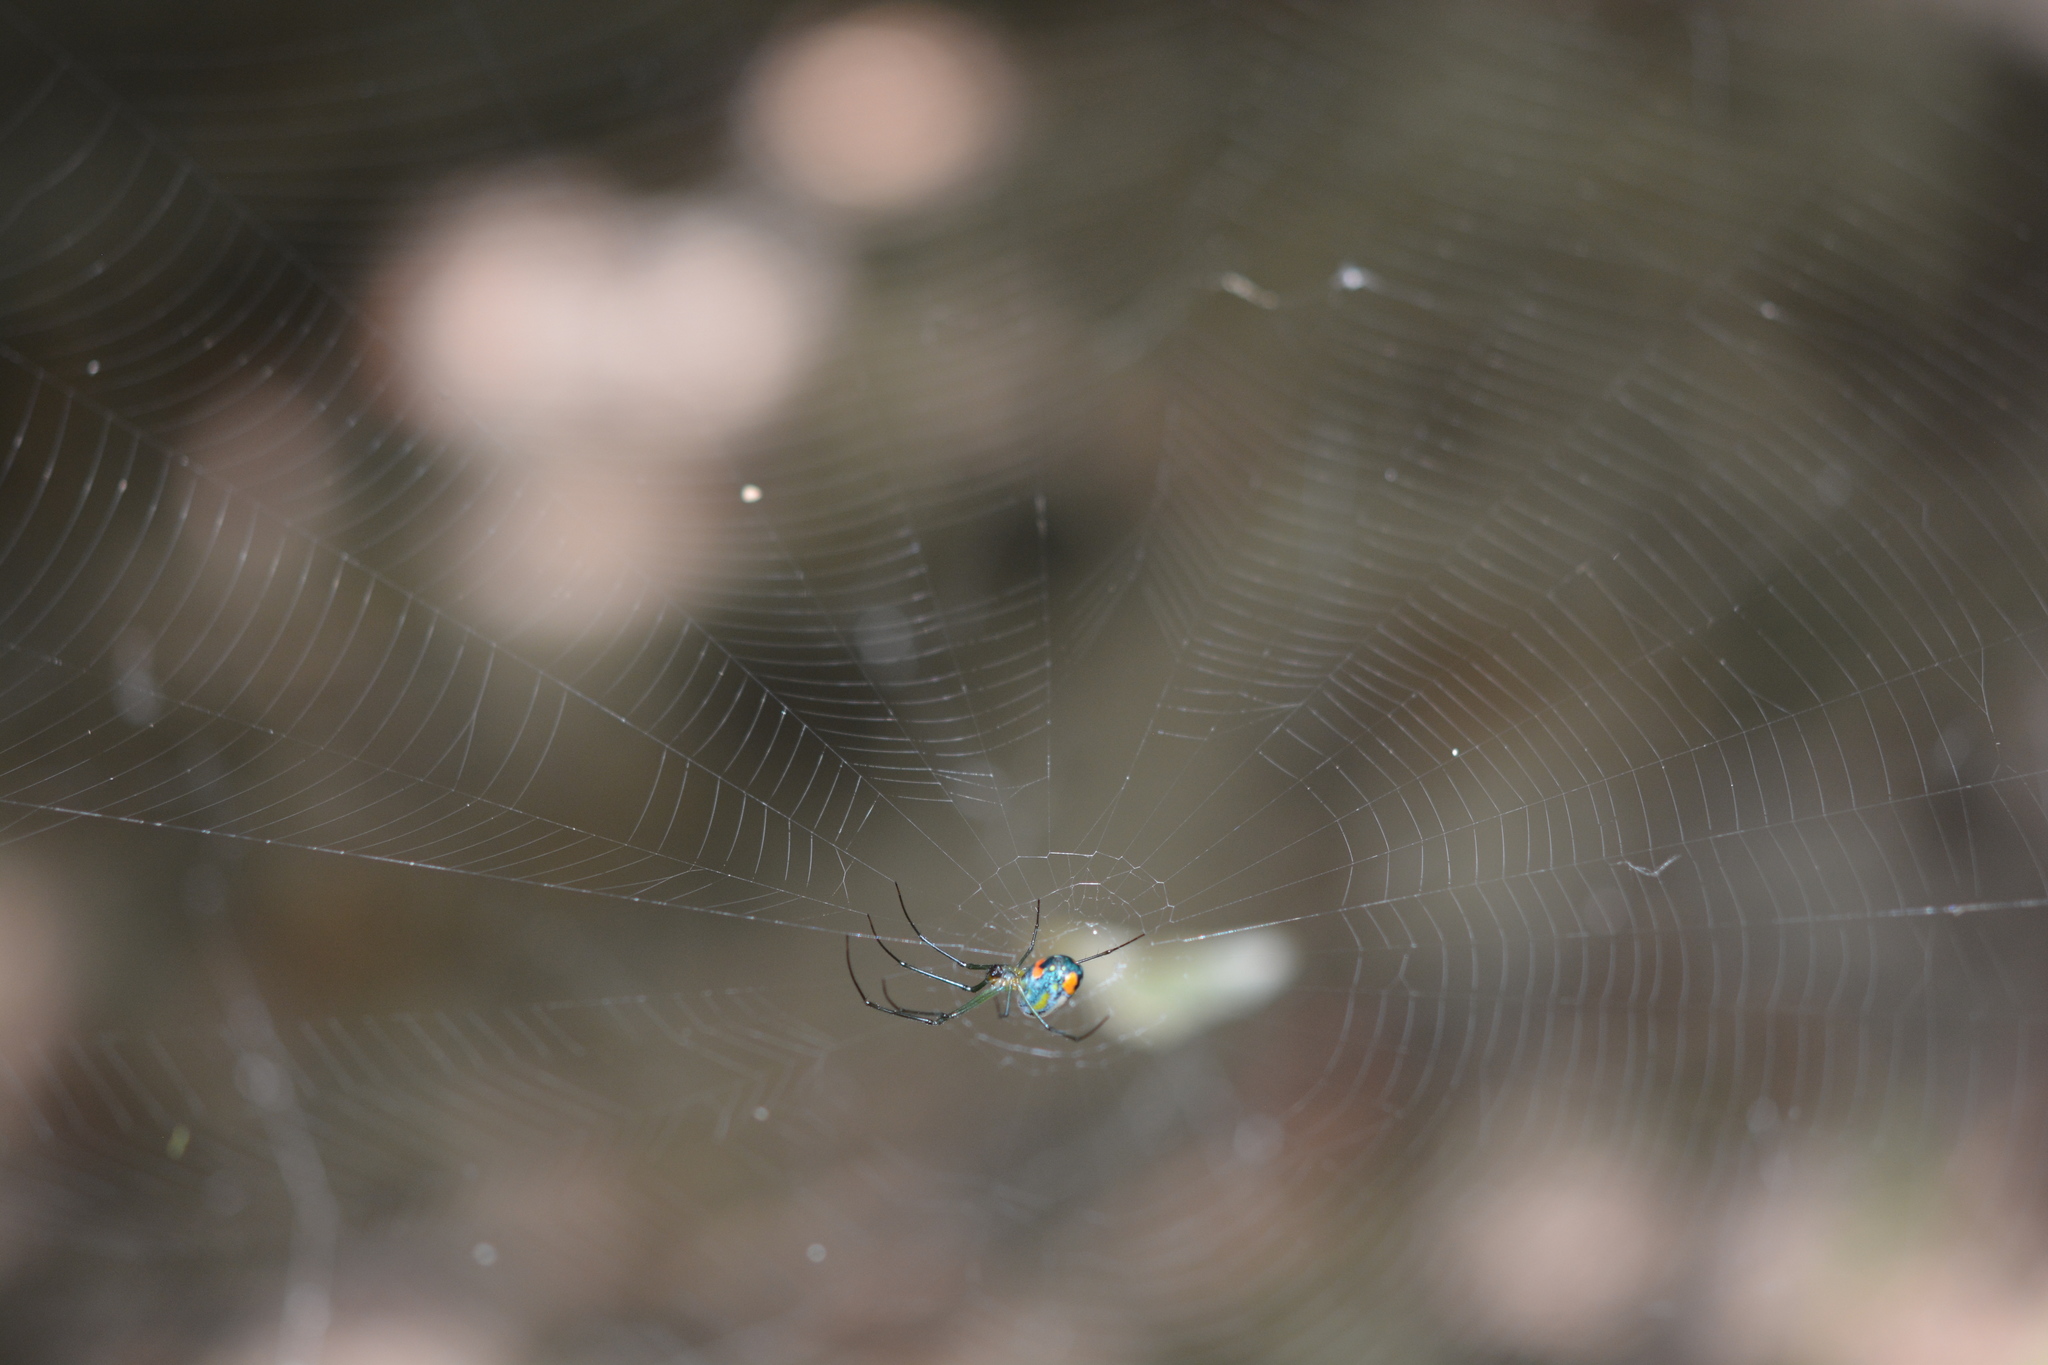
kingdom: Animalia
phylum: Arthropoda
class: Arachnida
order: Araneae
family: Tetragnathidae
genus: Leucauge
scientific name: Leucauge argyrobapta
